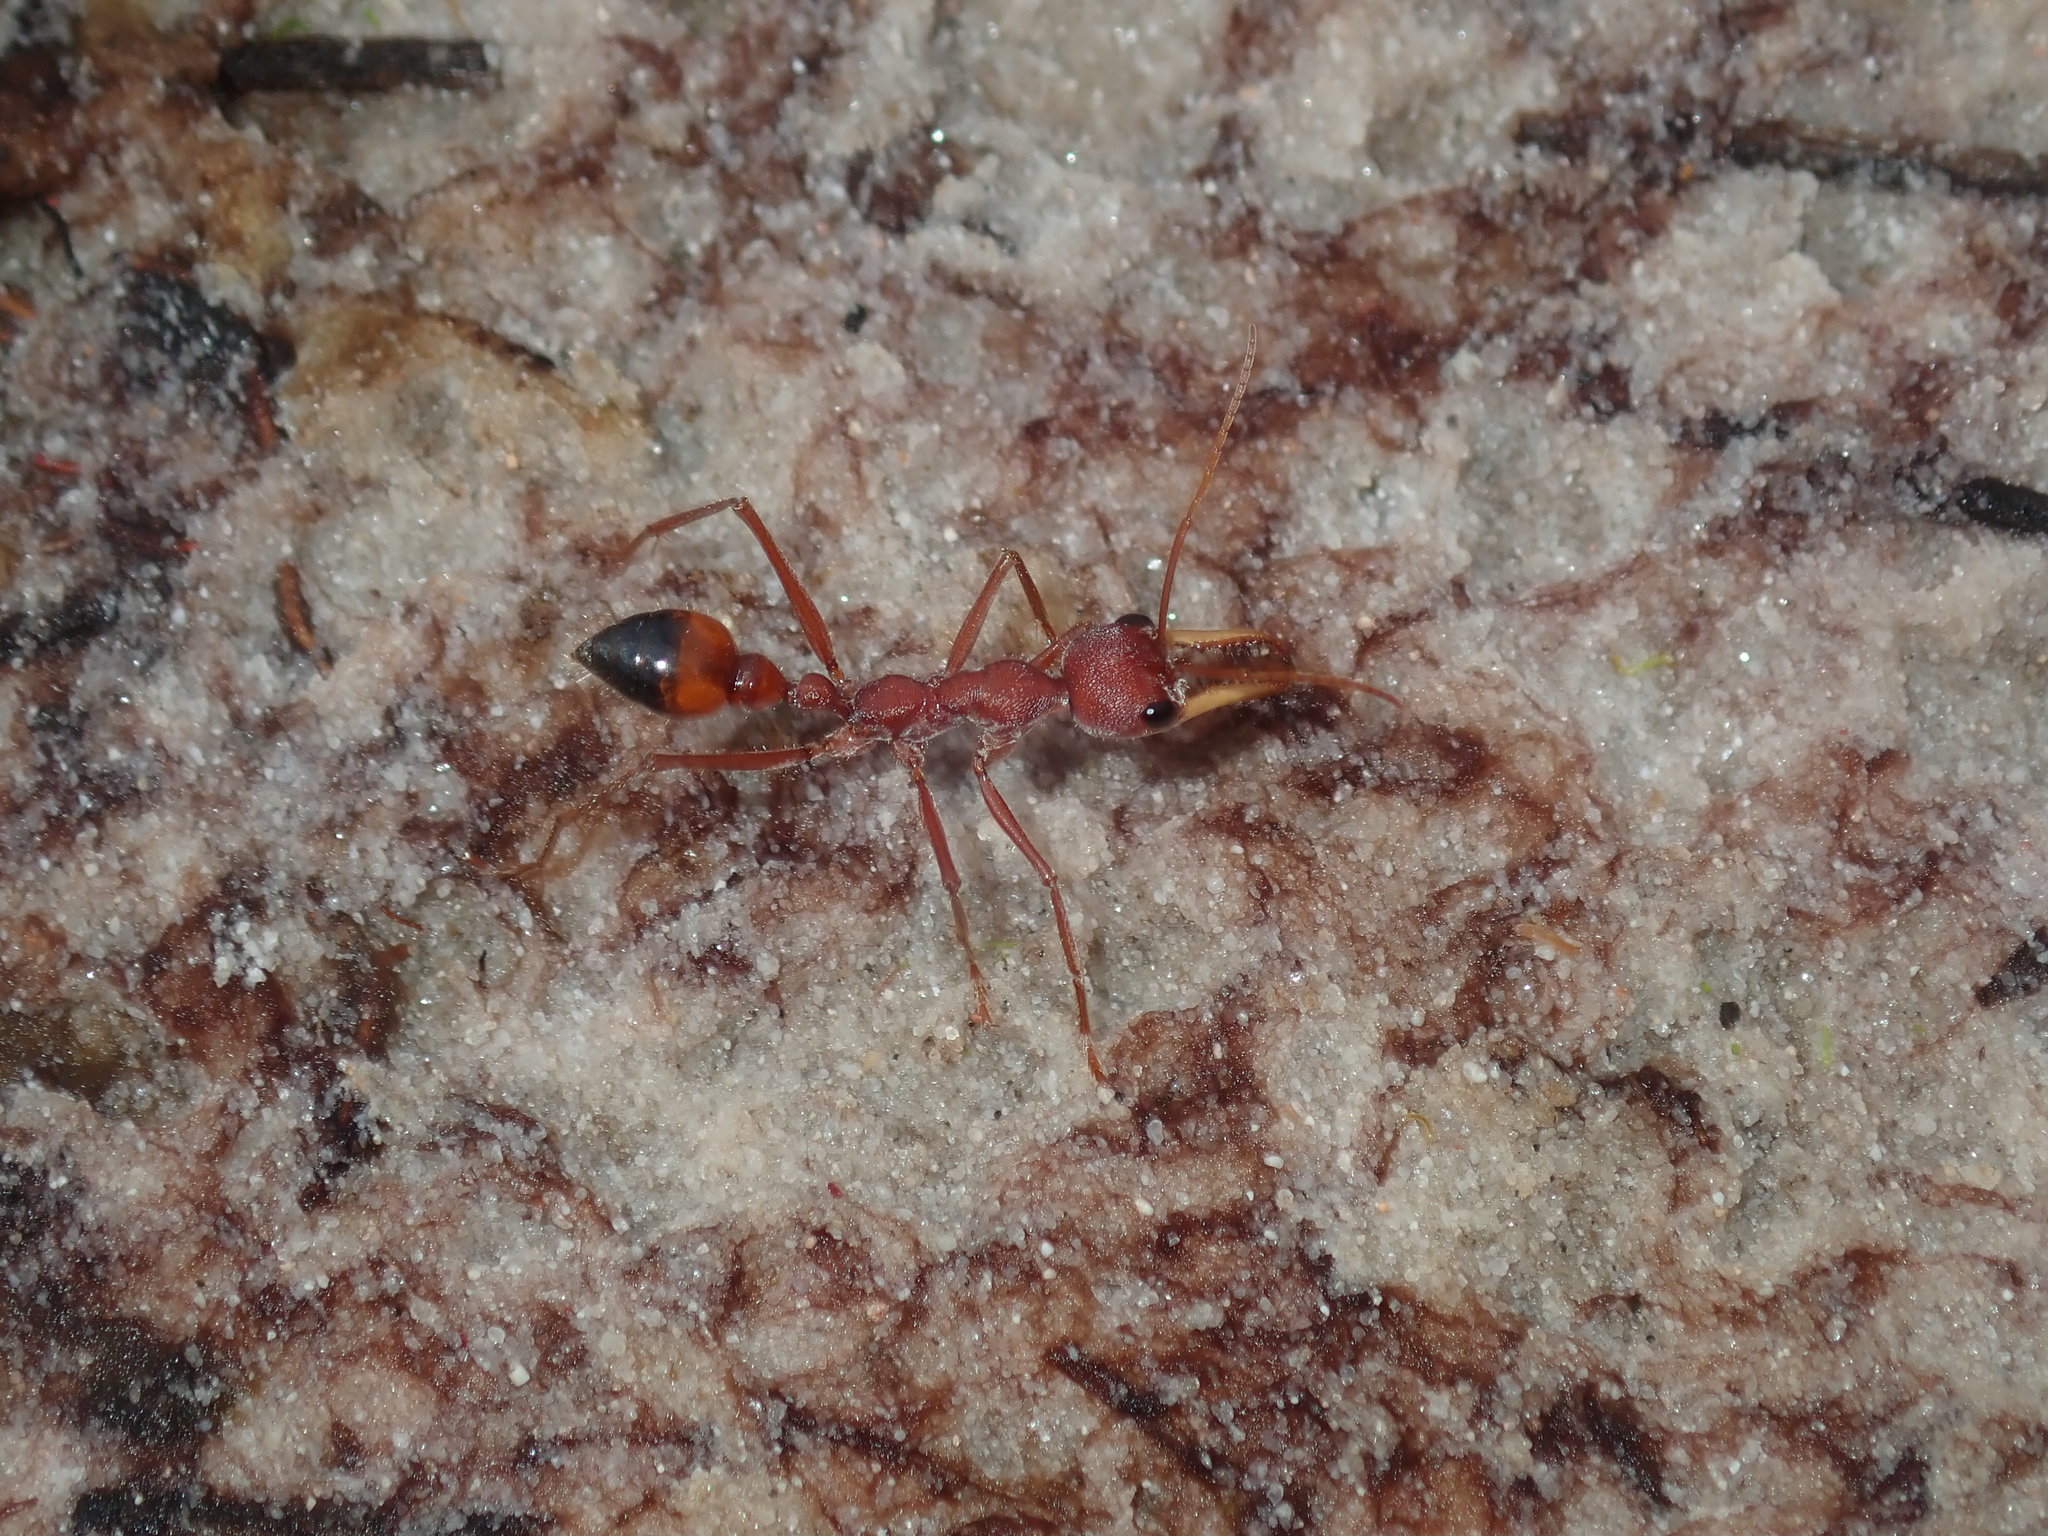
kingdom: Animalia
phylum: Arthropoda
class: Insecta
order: Hymenoptera
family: Formicidae
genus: Myrmecia
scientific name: Myrmecia gulosa
